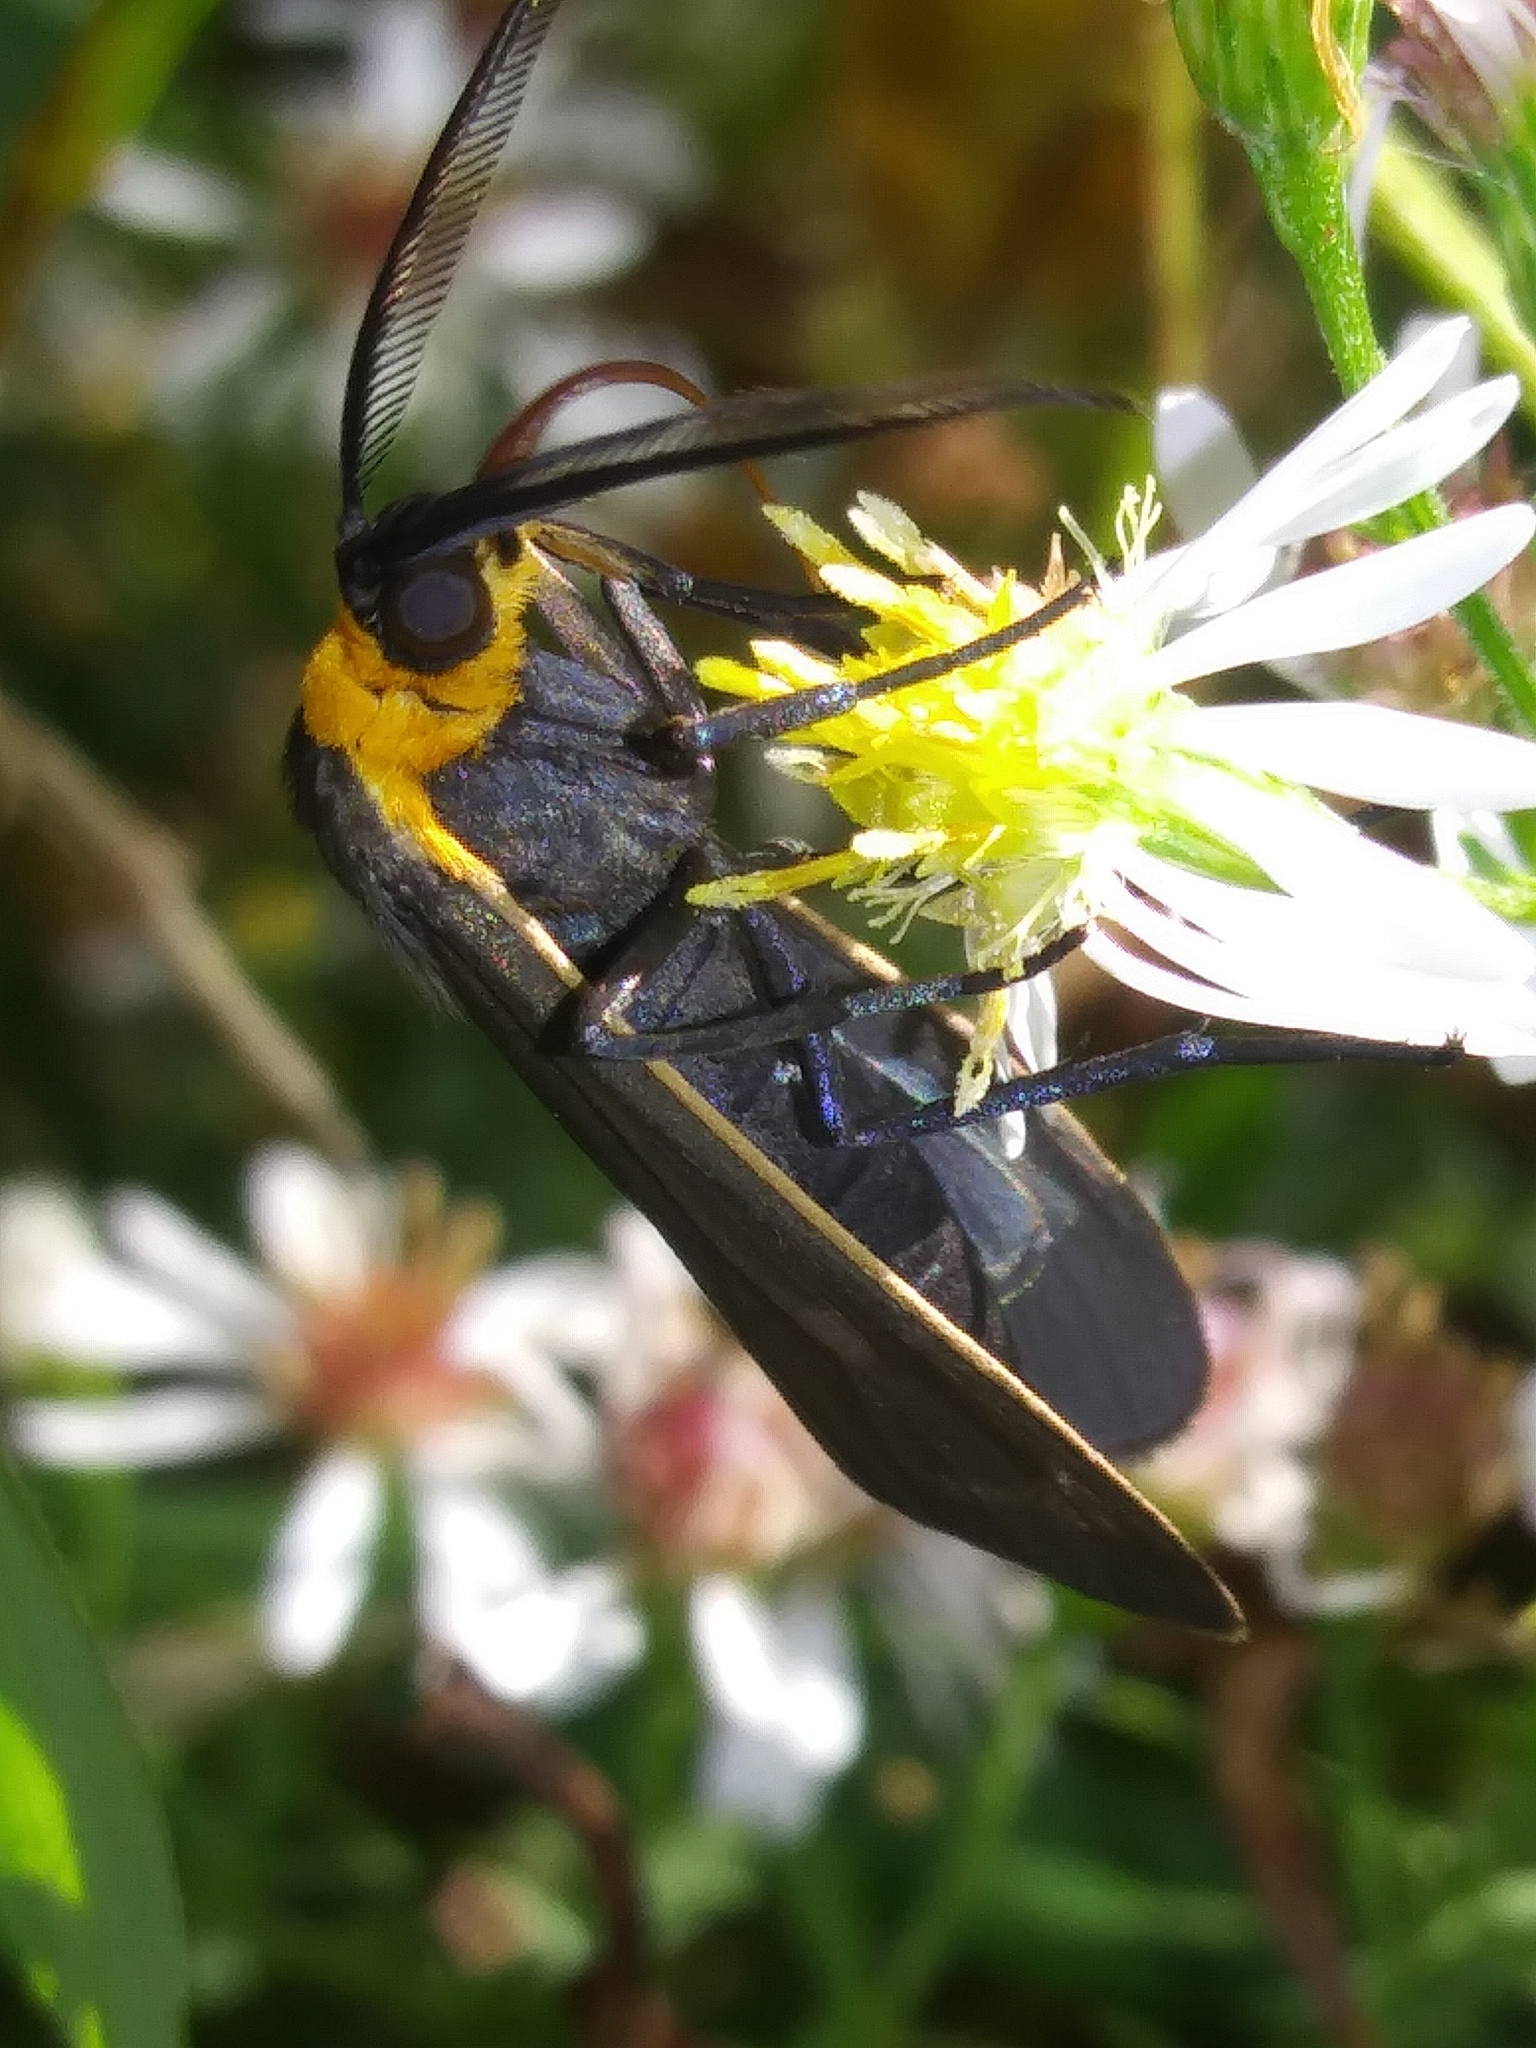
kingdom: Animalia
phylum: Arthropoda
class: Insecta
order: Lepidoptera
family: Erebidae
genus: Cisseps
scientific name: Cisseps fulvicollis
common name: Yellow-collared scape moth
